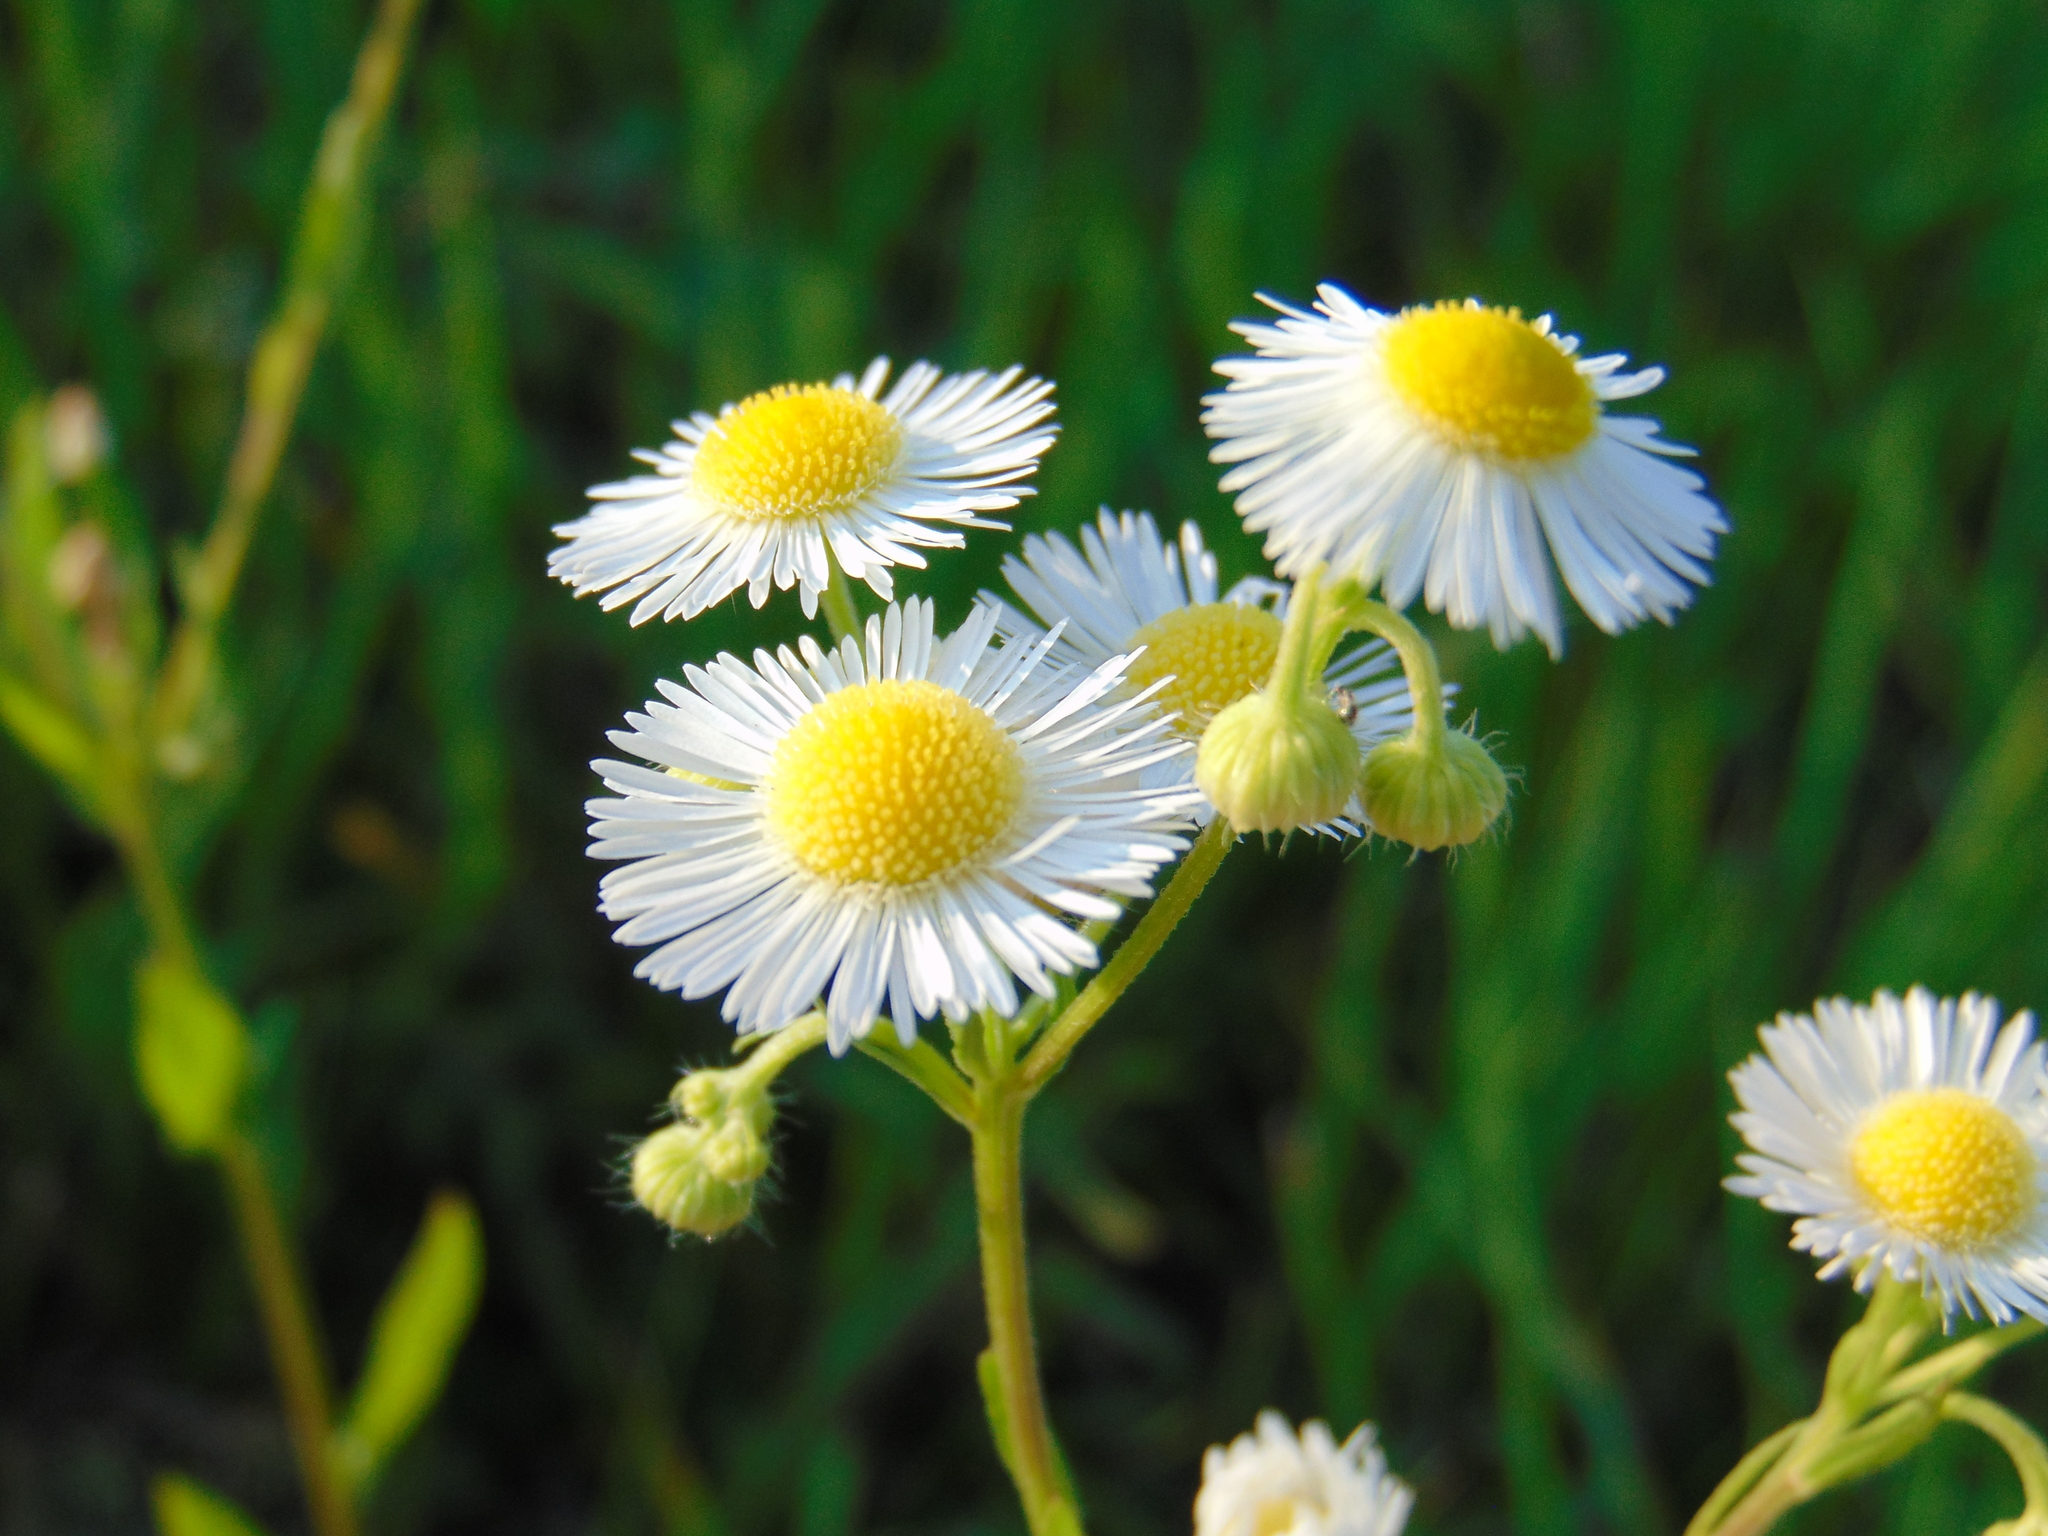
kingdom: Plantae
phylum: Tracheophyta
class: Magnoliopsida
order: Asterales
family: Asteraceae
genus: Erigeron
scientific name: Erigeron annuus
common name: Tall fleabane
